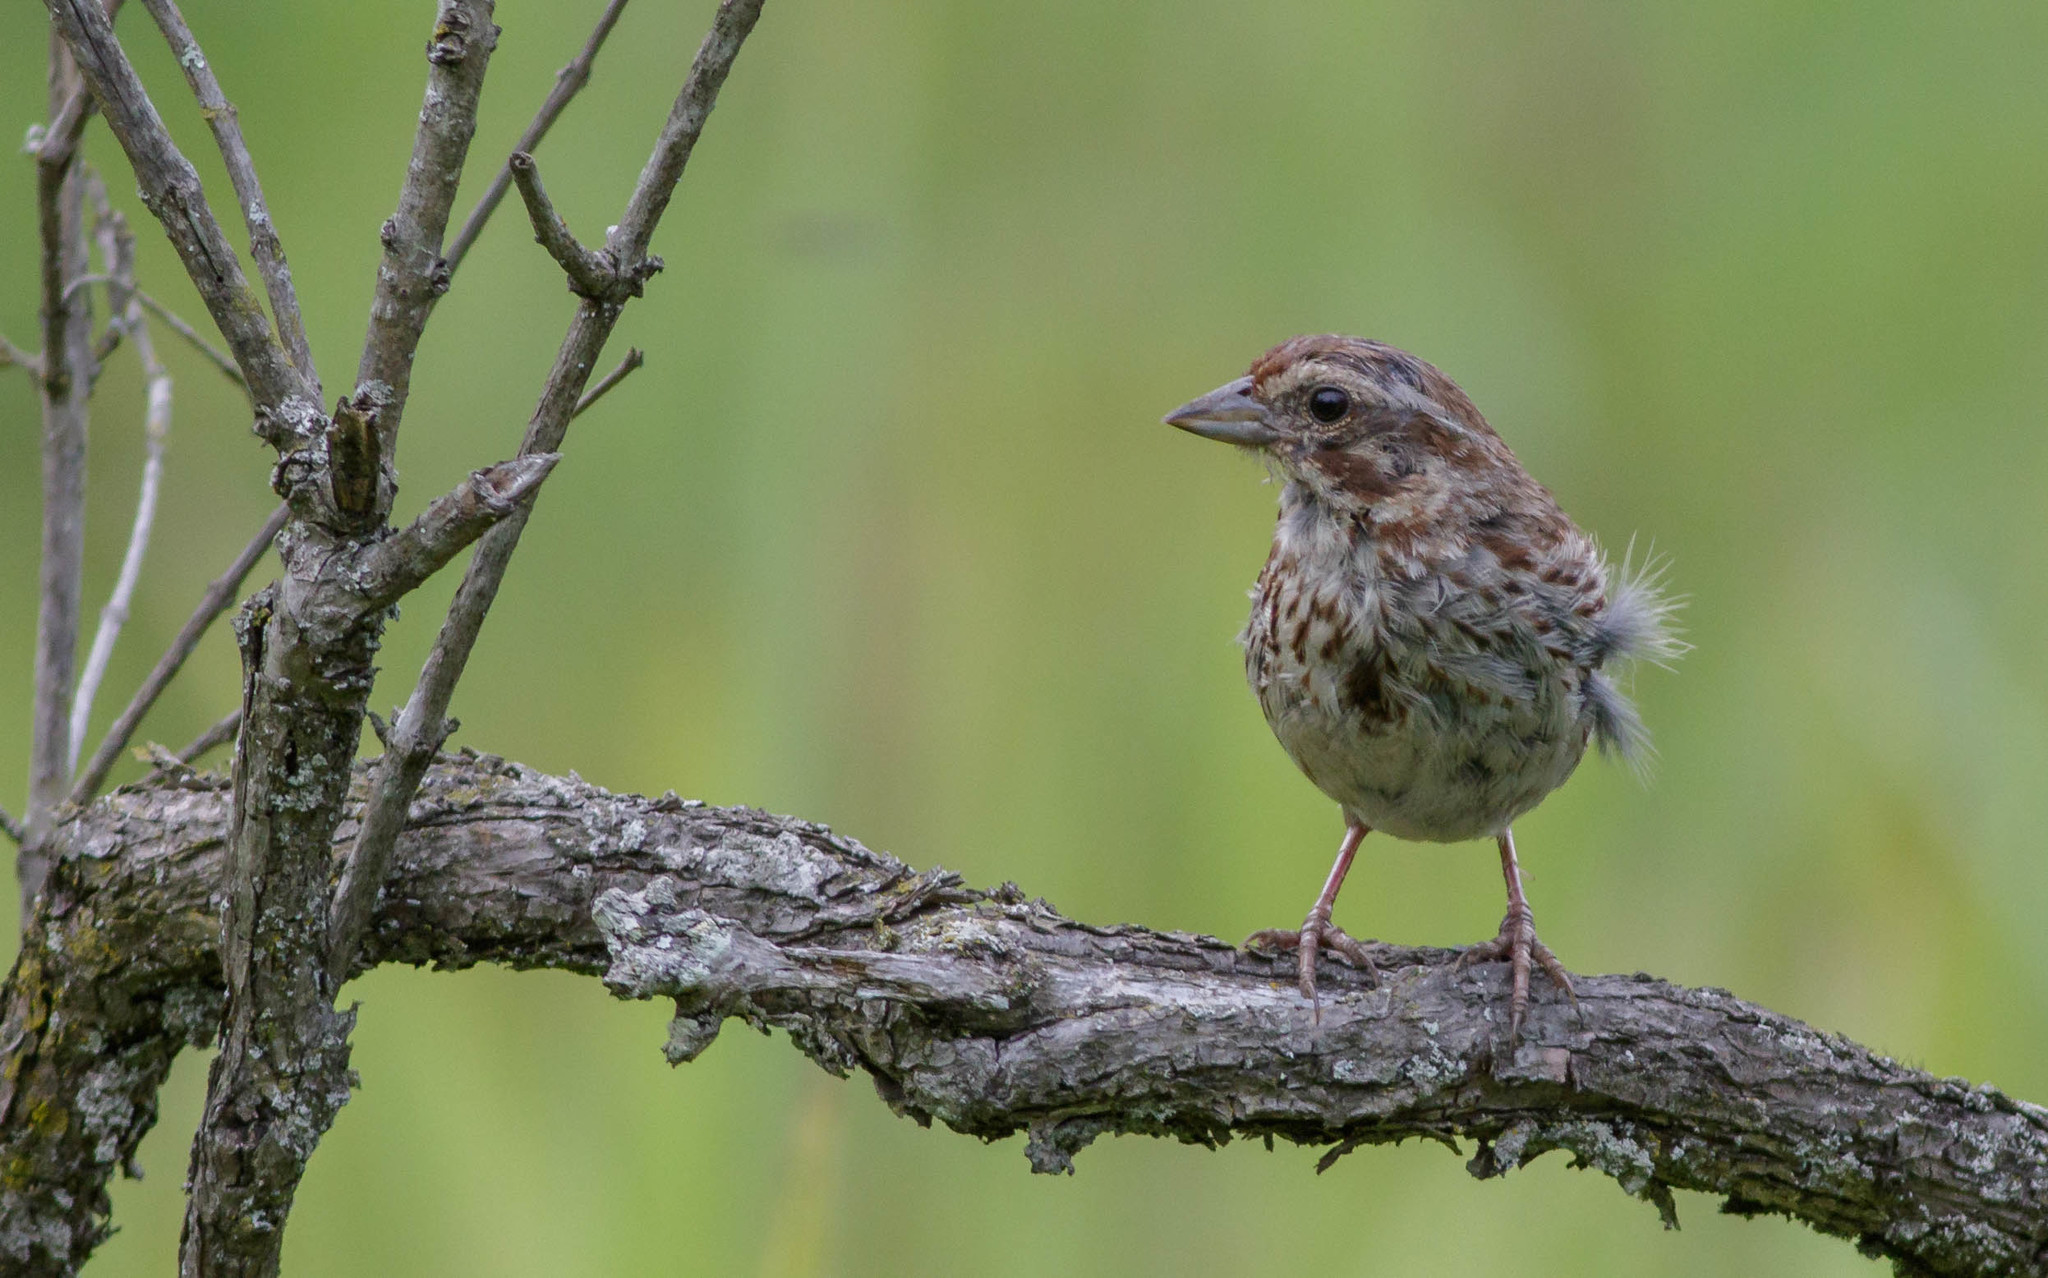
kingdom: Animalia
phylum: Chordata
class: Aves
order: Passeriformes
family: Passerellidae
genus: Melospiza
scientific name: Melospiza melodia
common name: Song sparrow
